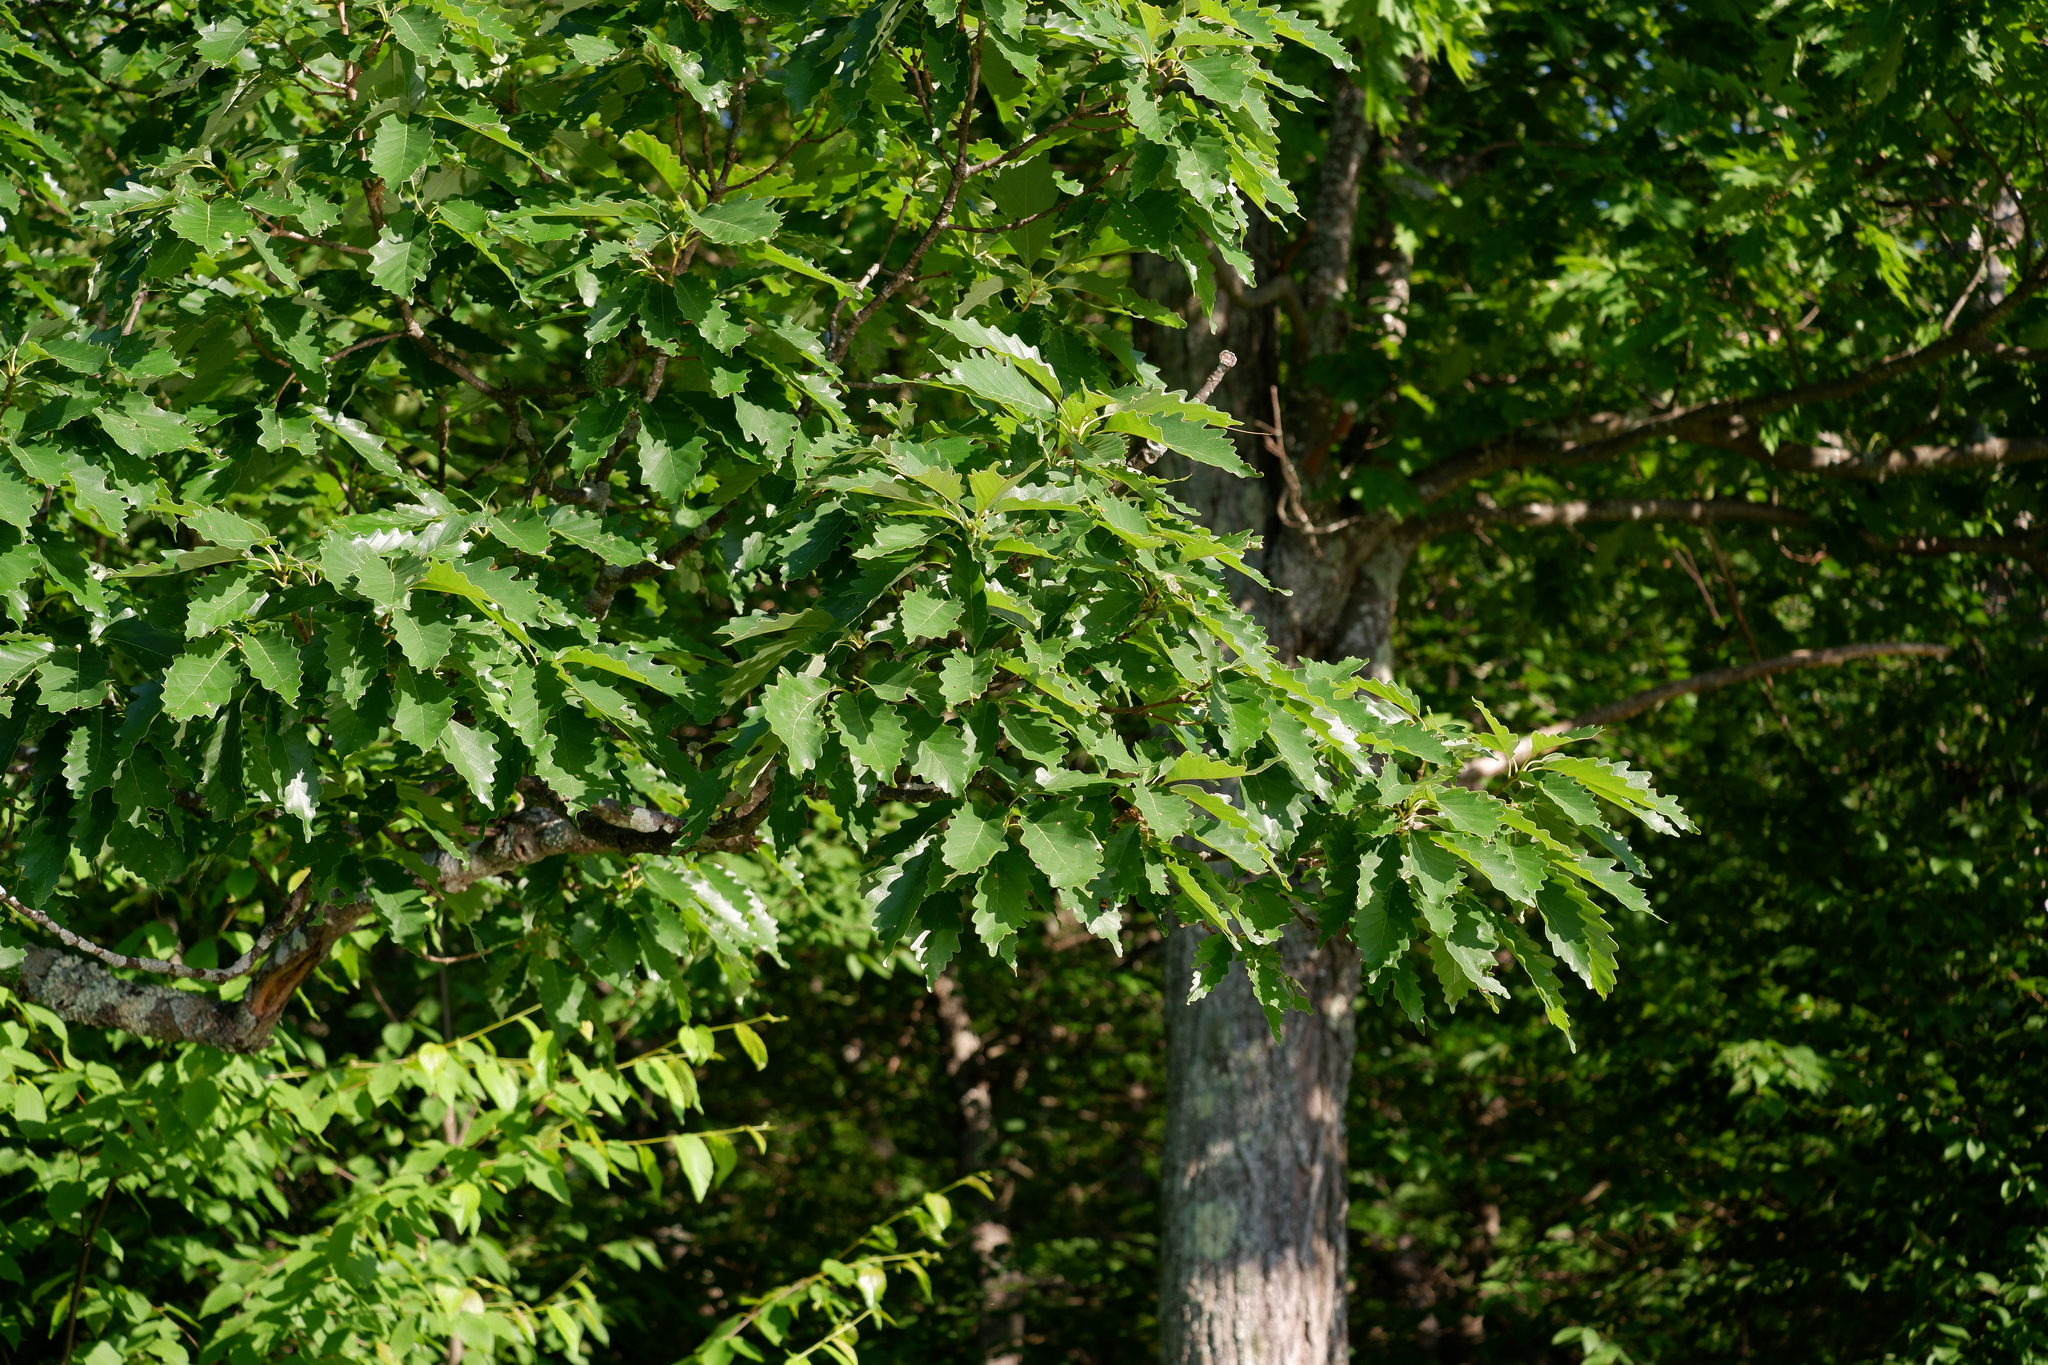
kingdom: Plantae
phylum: Tracheophyta
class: Magnoliopsida
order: Fagales
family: Fagaceae
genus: Quercus
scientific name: Quercus montana
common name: Chestnut oak
